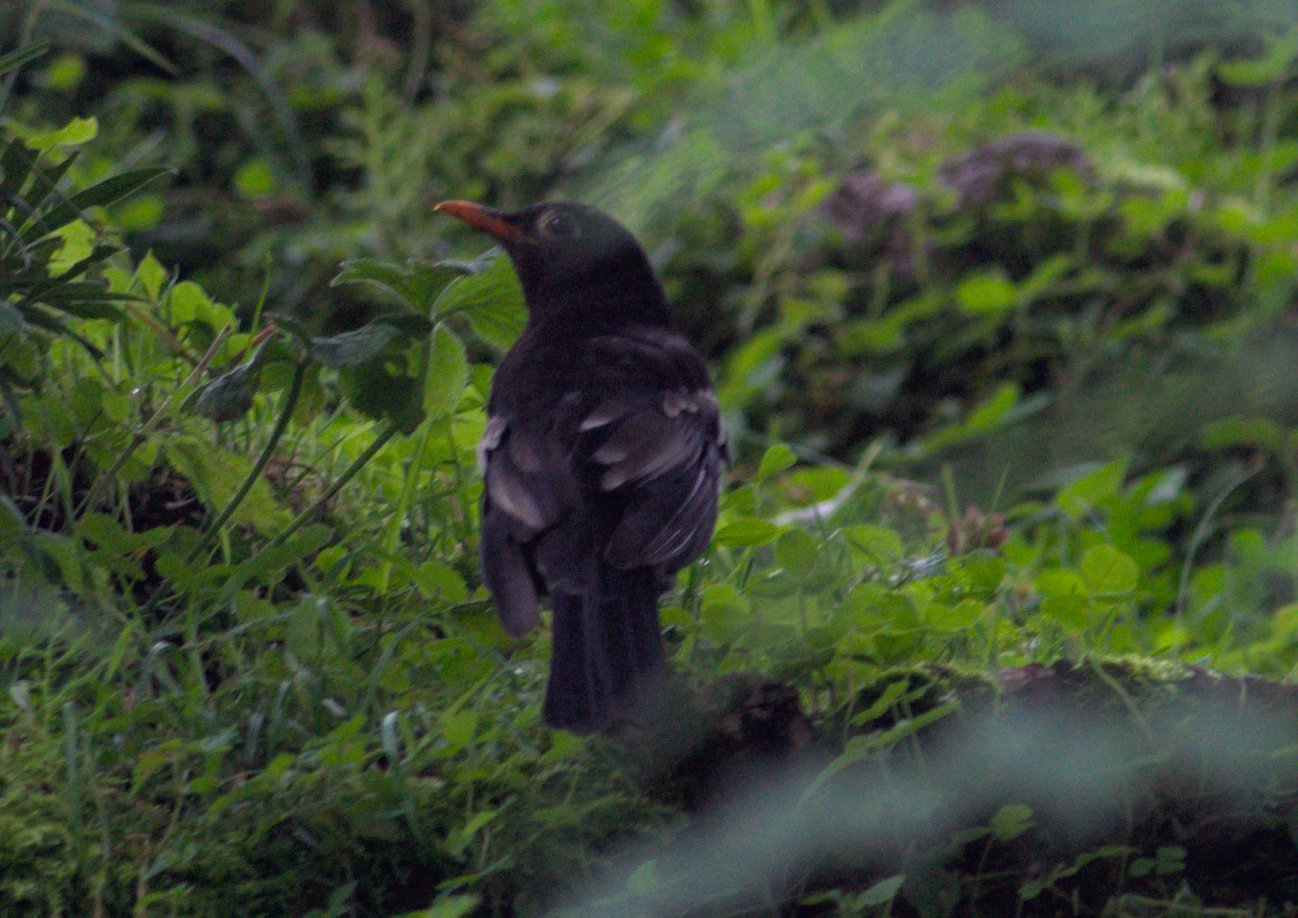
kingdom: Animalia
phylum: Chordata
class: Aves
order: Passeriformes
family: Turdidae
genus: Turdus
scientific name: Turdus boulboul
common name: Grey-winged blackbird
